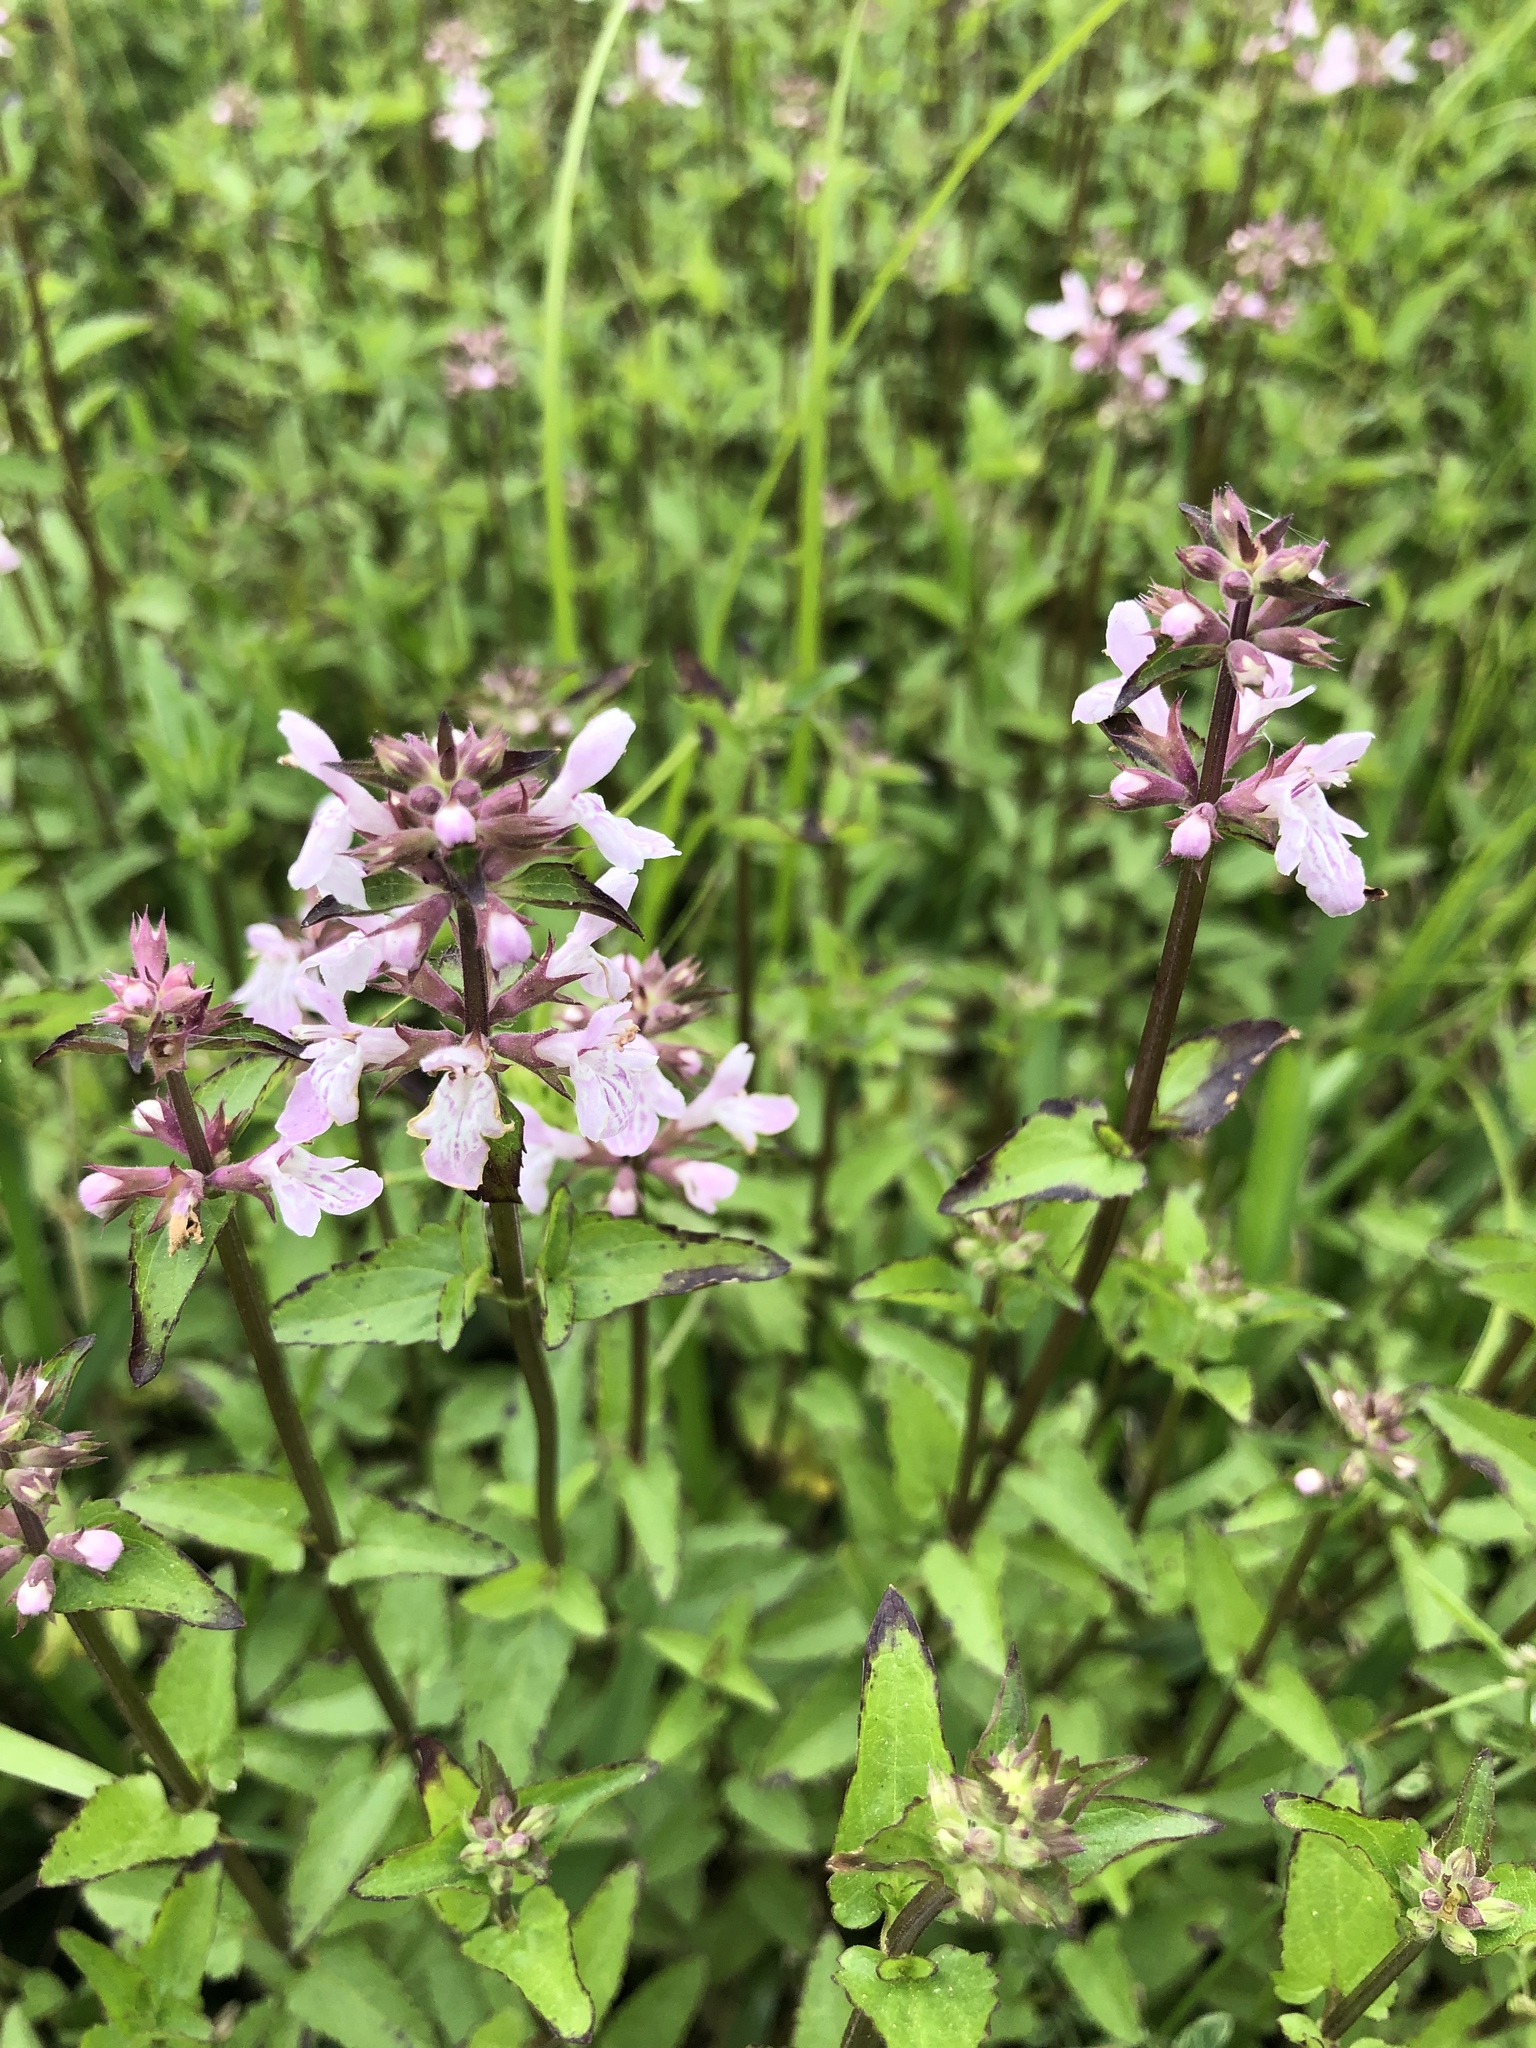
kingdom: Plantae
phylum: Tracheophyta
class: Magnoliopsida
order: Lamiales
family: Lamiaceae
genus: Stachys
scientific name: Stachys floridana
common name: Florida betony
